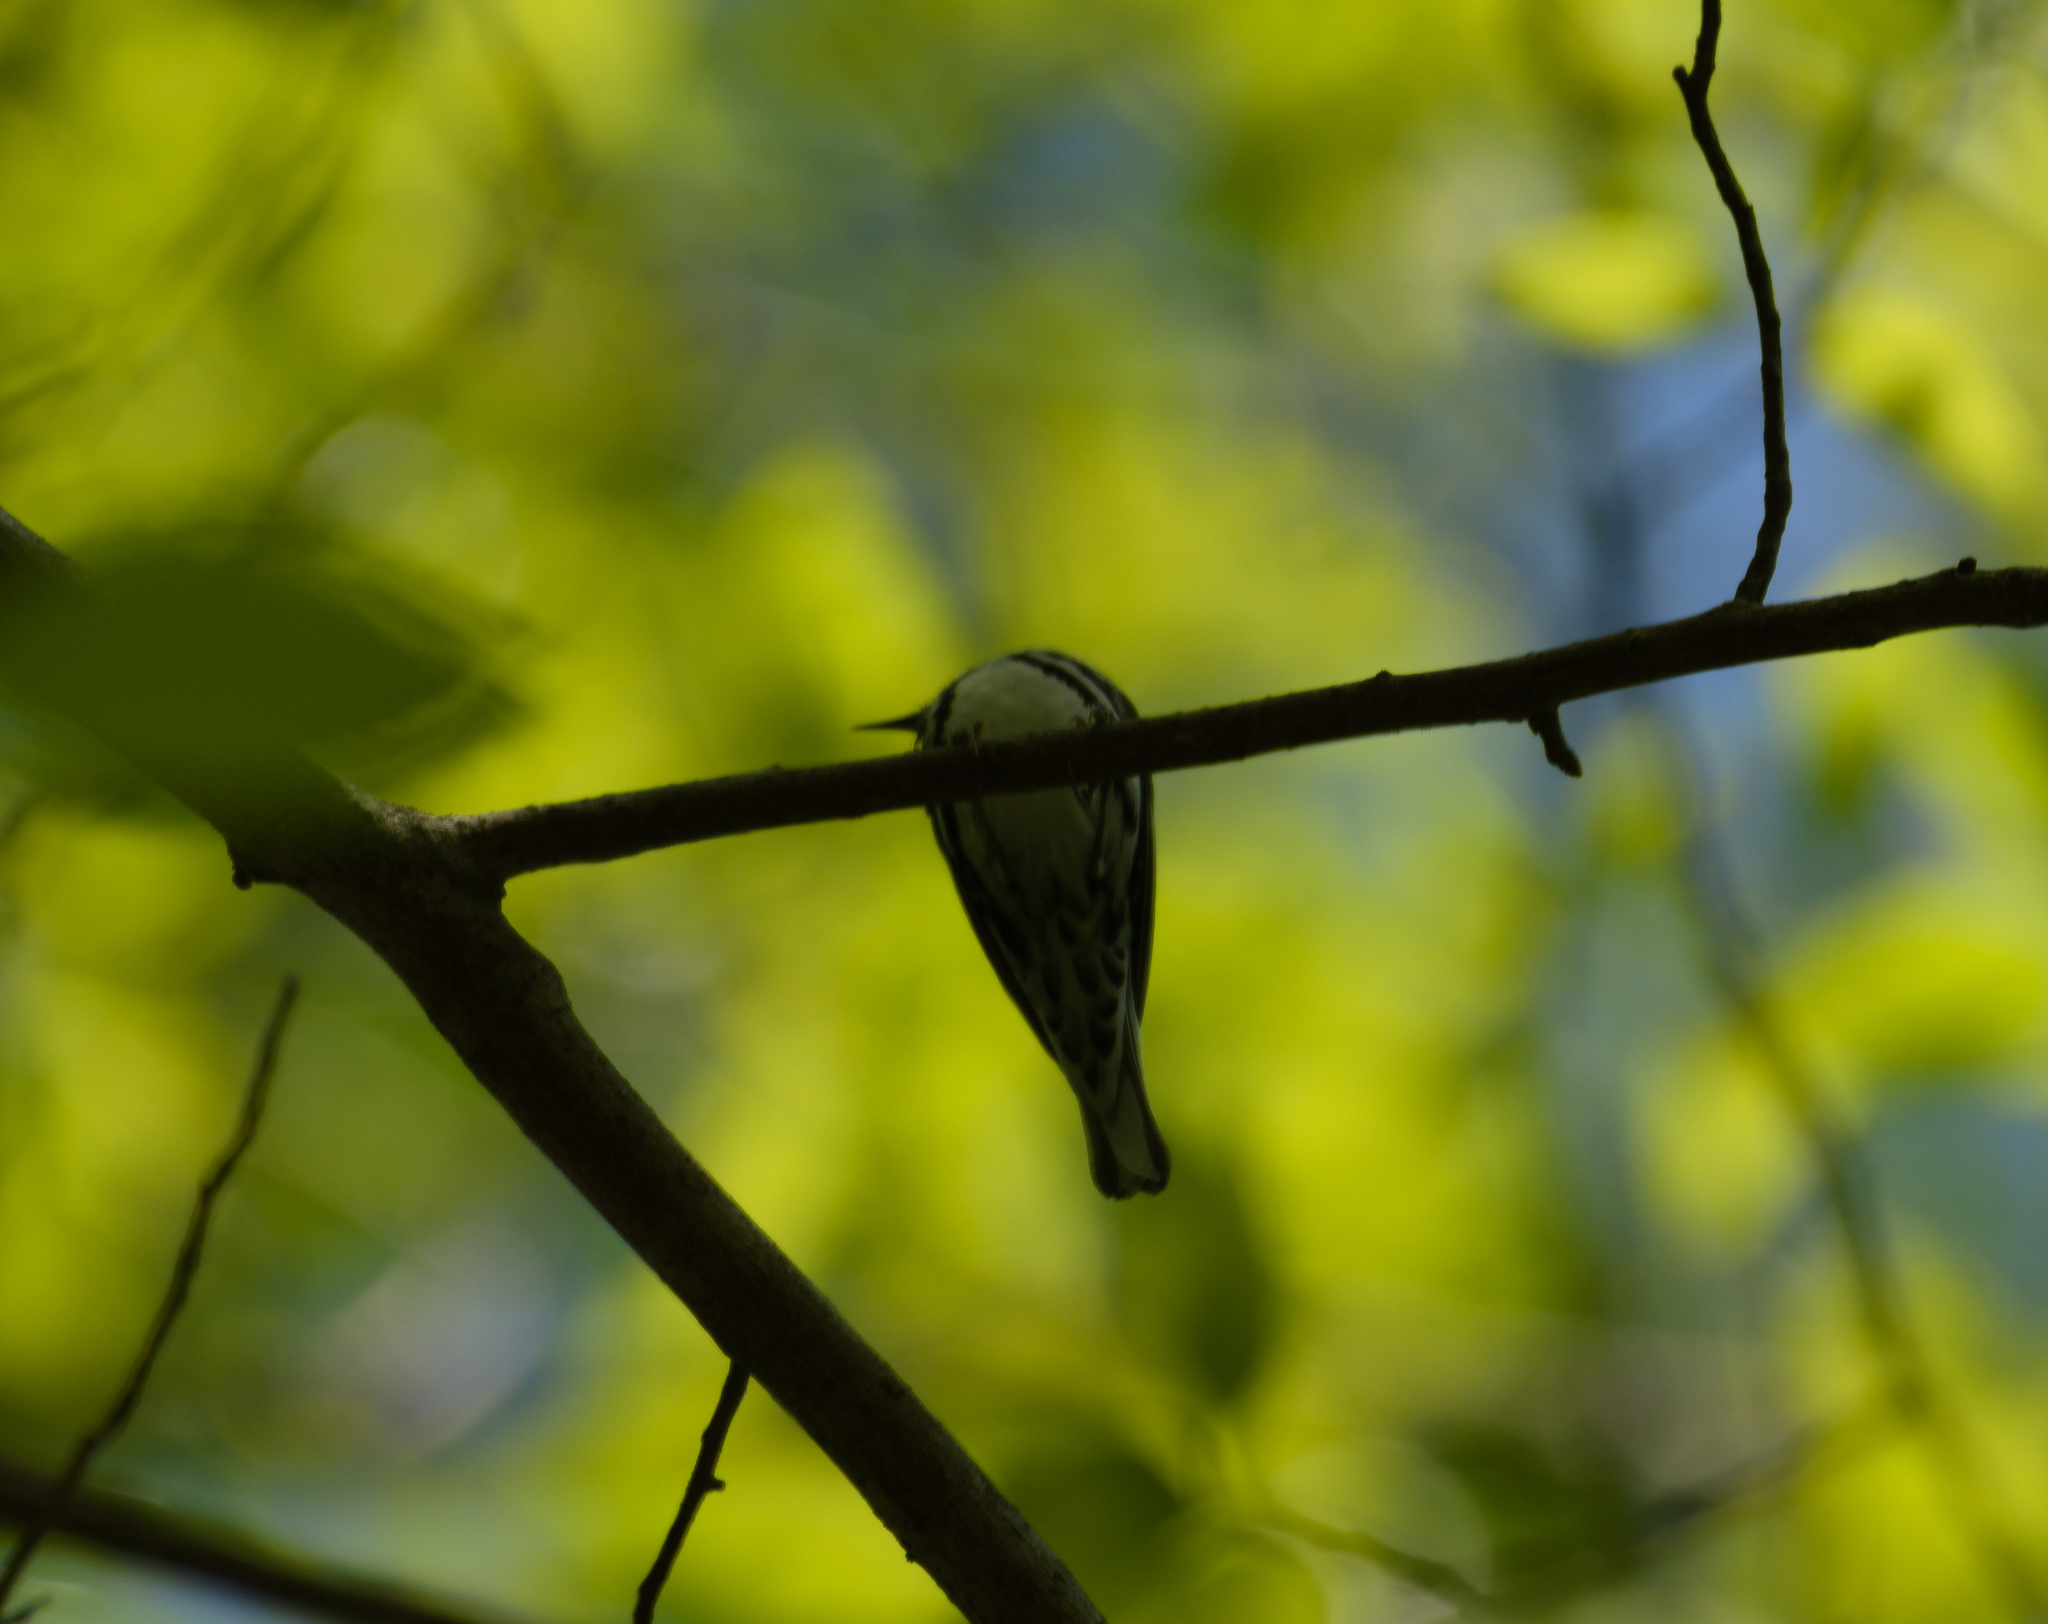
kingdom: Animalia
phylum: Chordata
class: Aves
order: Passeriformes
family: Parulidae
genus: Mniotilta
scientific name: Mniotilta varia
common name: Black-and-white warbler
